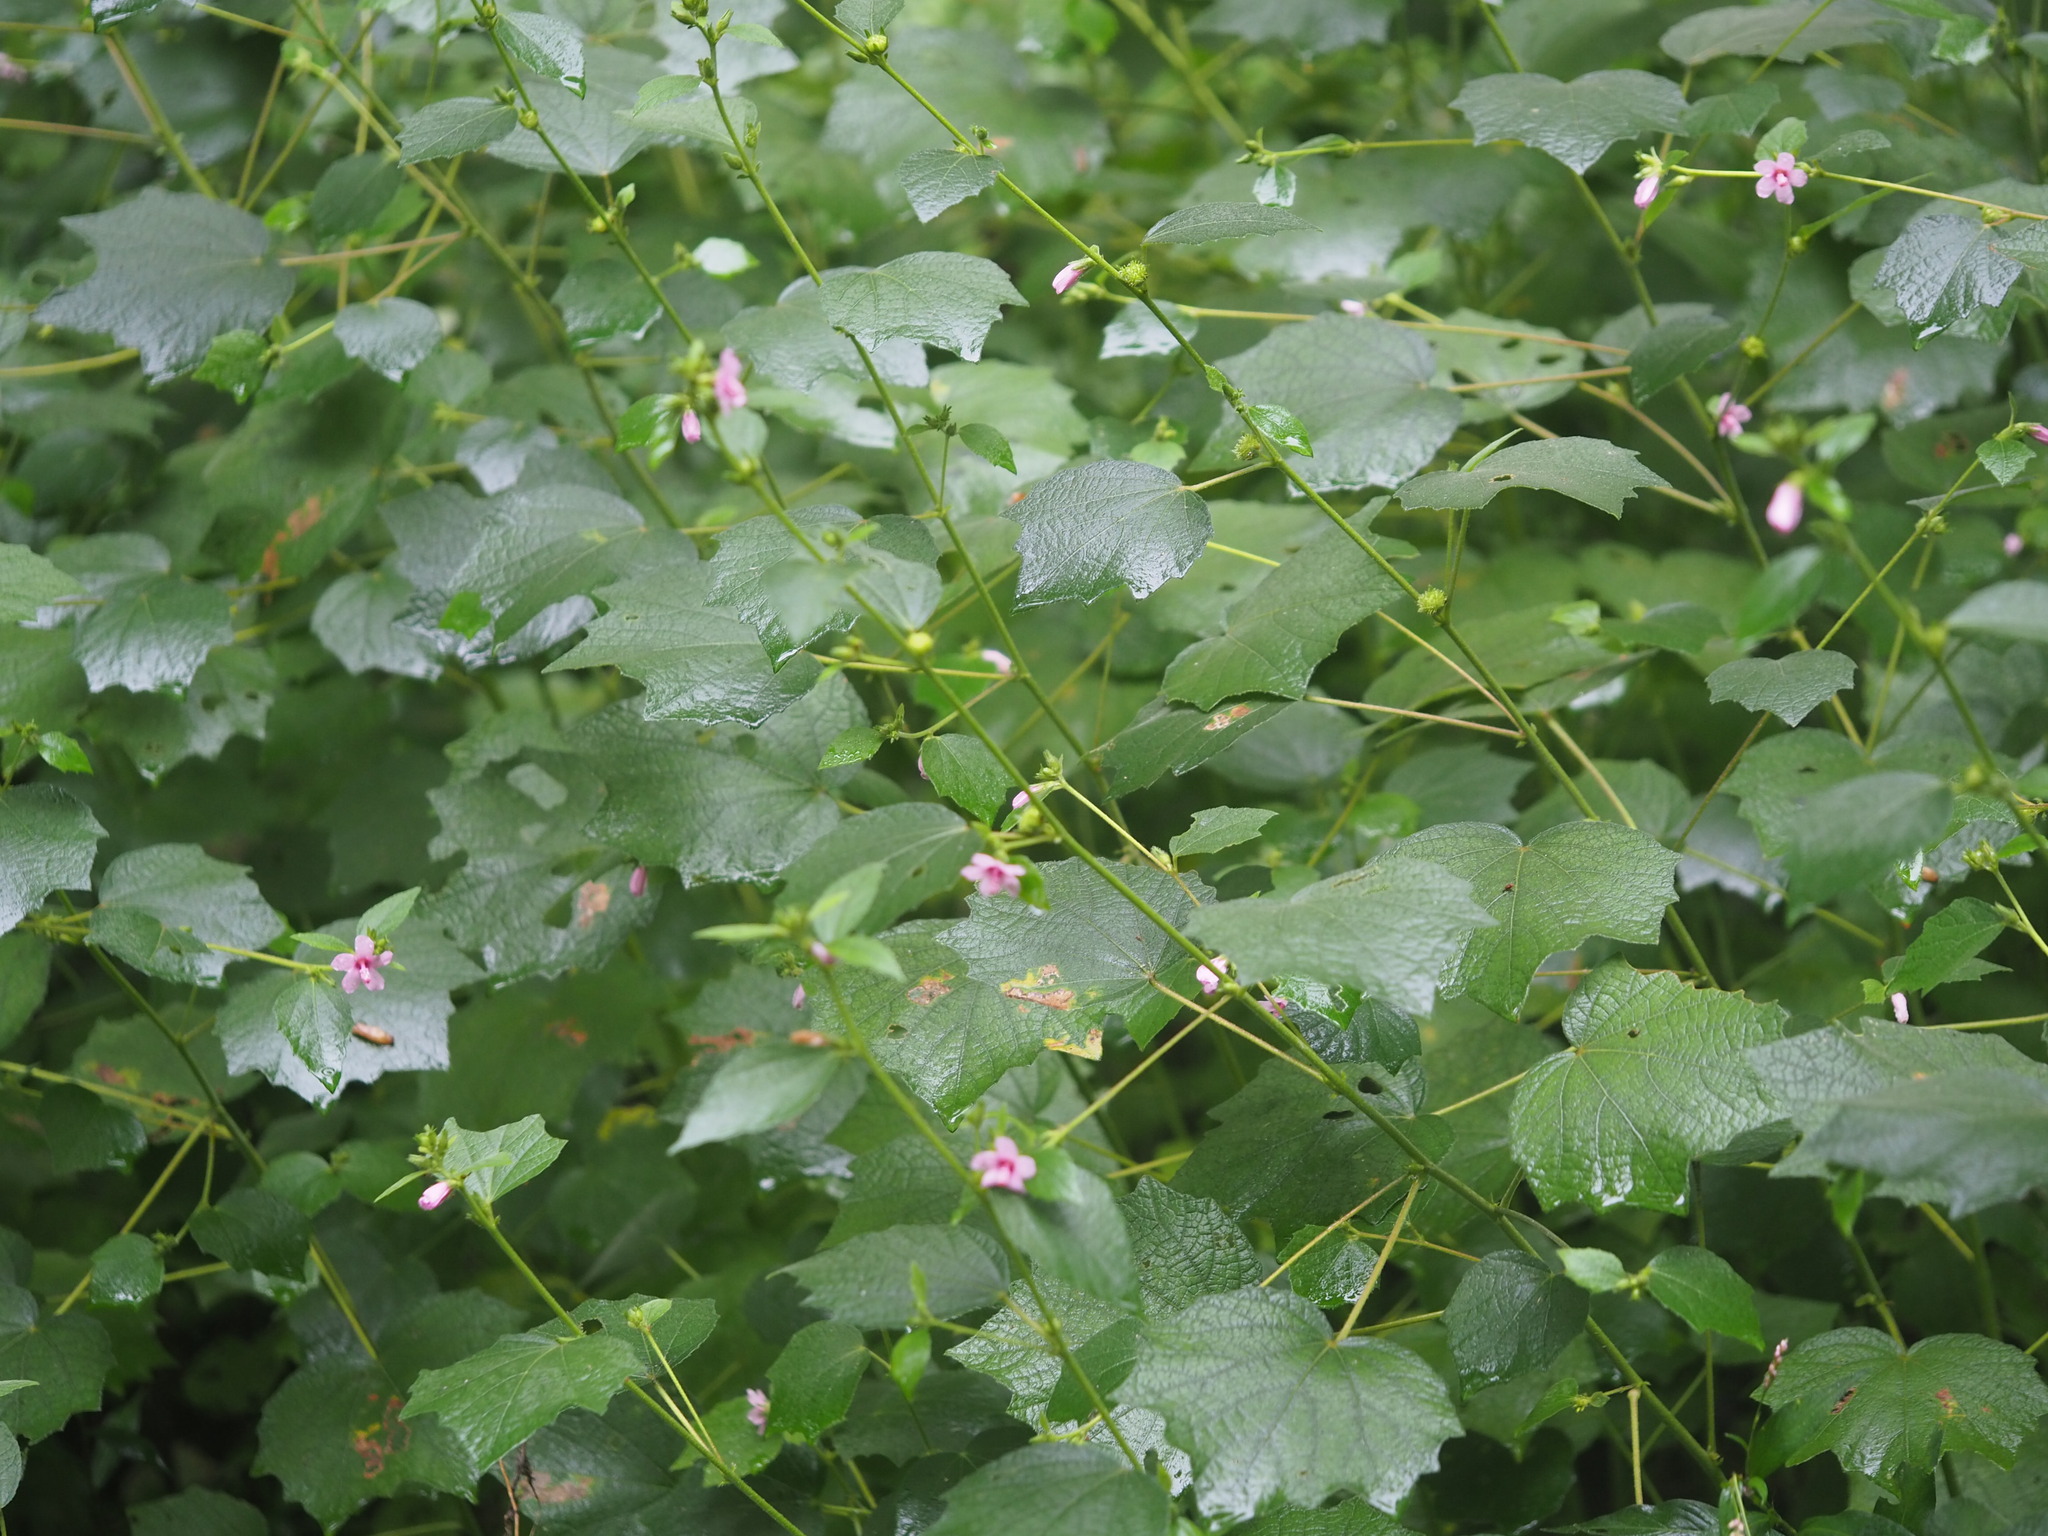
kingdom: Plantae
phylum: Tracheophyta
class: Magnoliopsida
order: Malvales
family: Malvaceae
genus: Urena
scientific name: Urena lobata
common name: Caesarweed
